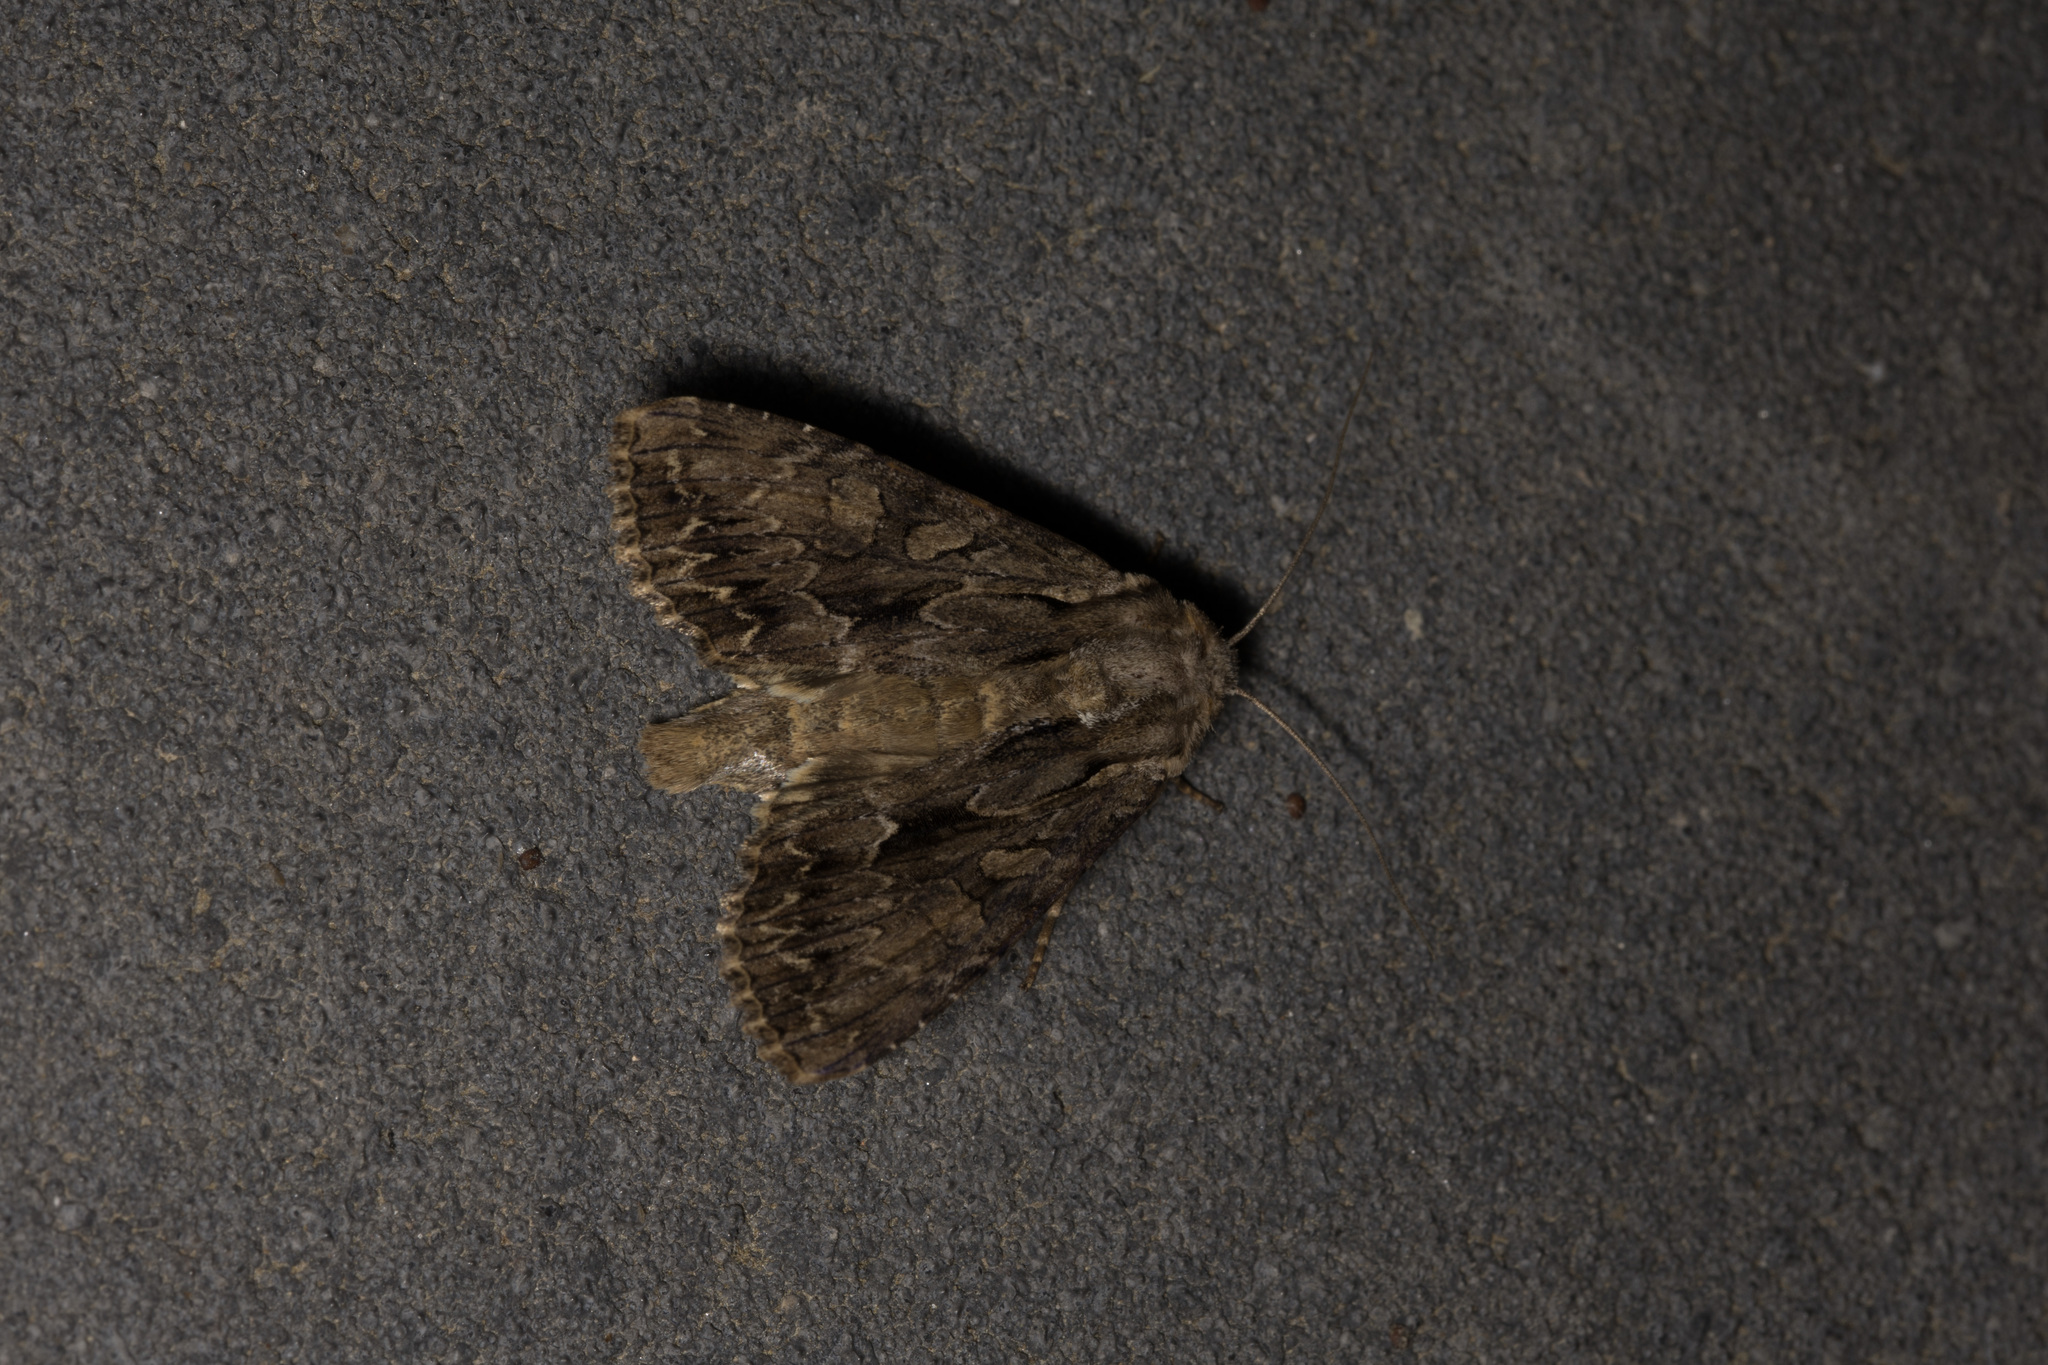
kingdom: Animalia
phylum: Arthropoda
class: Insecta
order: Lepidoptera
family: Noctuidae
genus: Apamea
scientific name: Apamea monoglypha
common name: Dark arches
